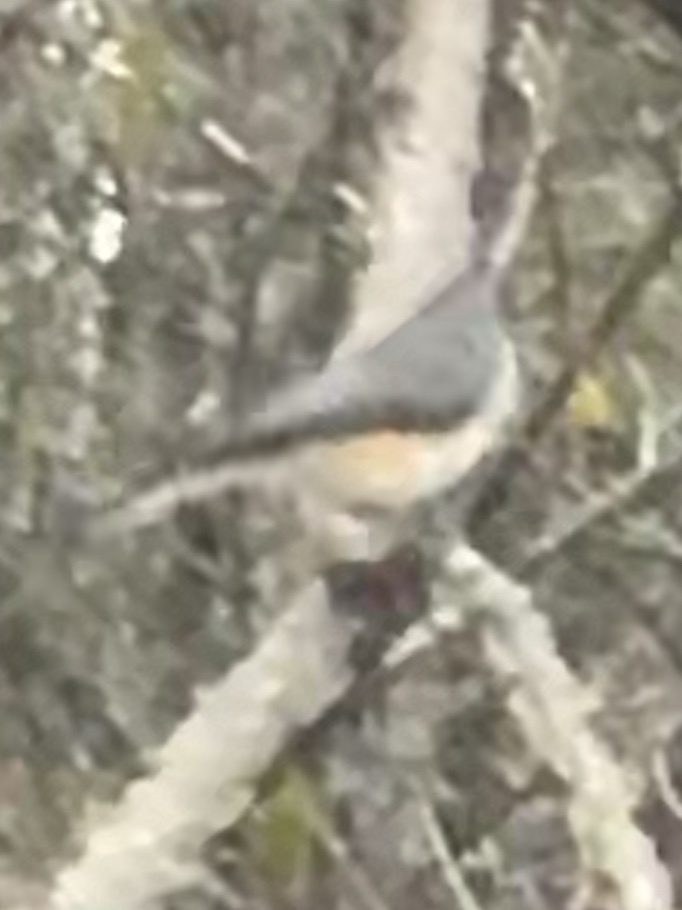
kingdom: Animalia
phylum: Chordata
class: Aves
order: Passeriformes
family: Paridae
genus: Baeolophus
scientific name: Baeolophus bicolor
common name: Tufted titmouse
